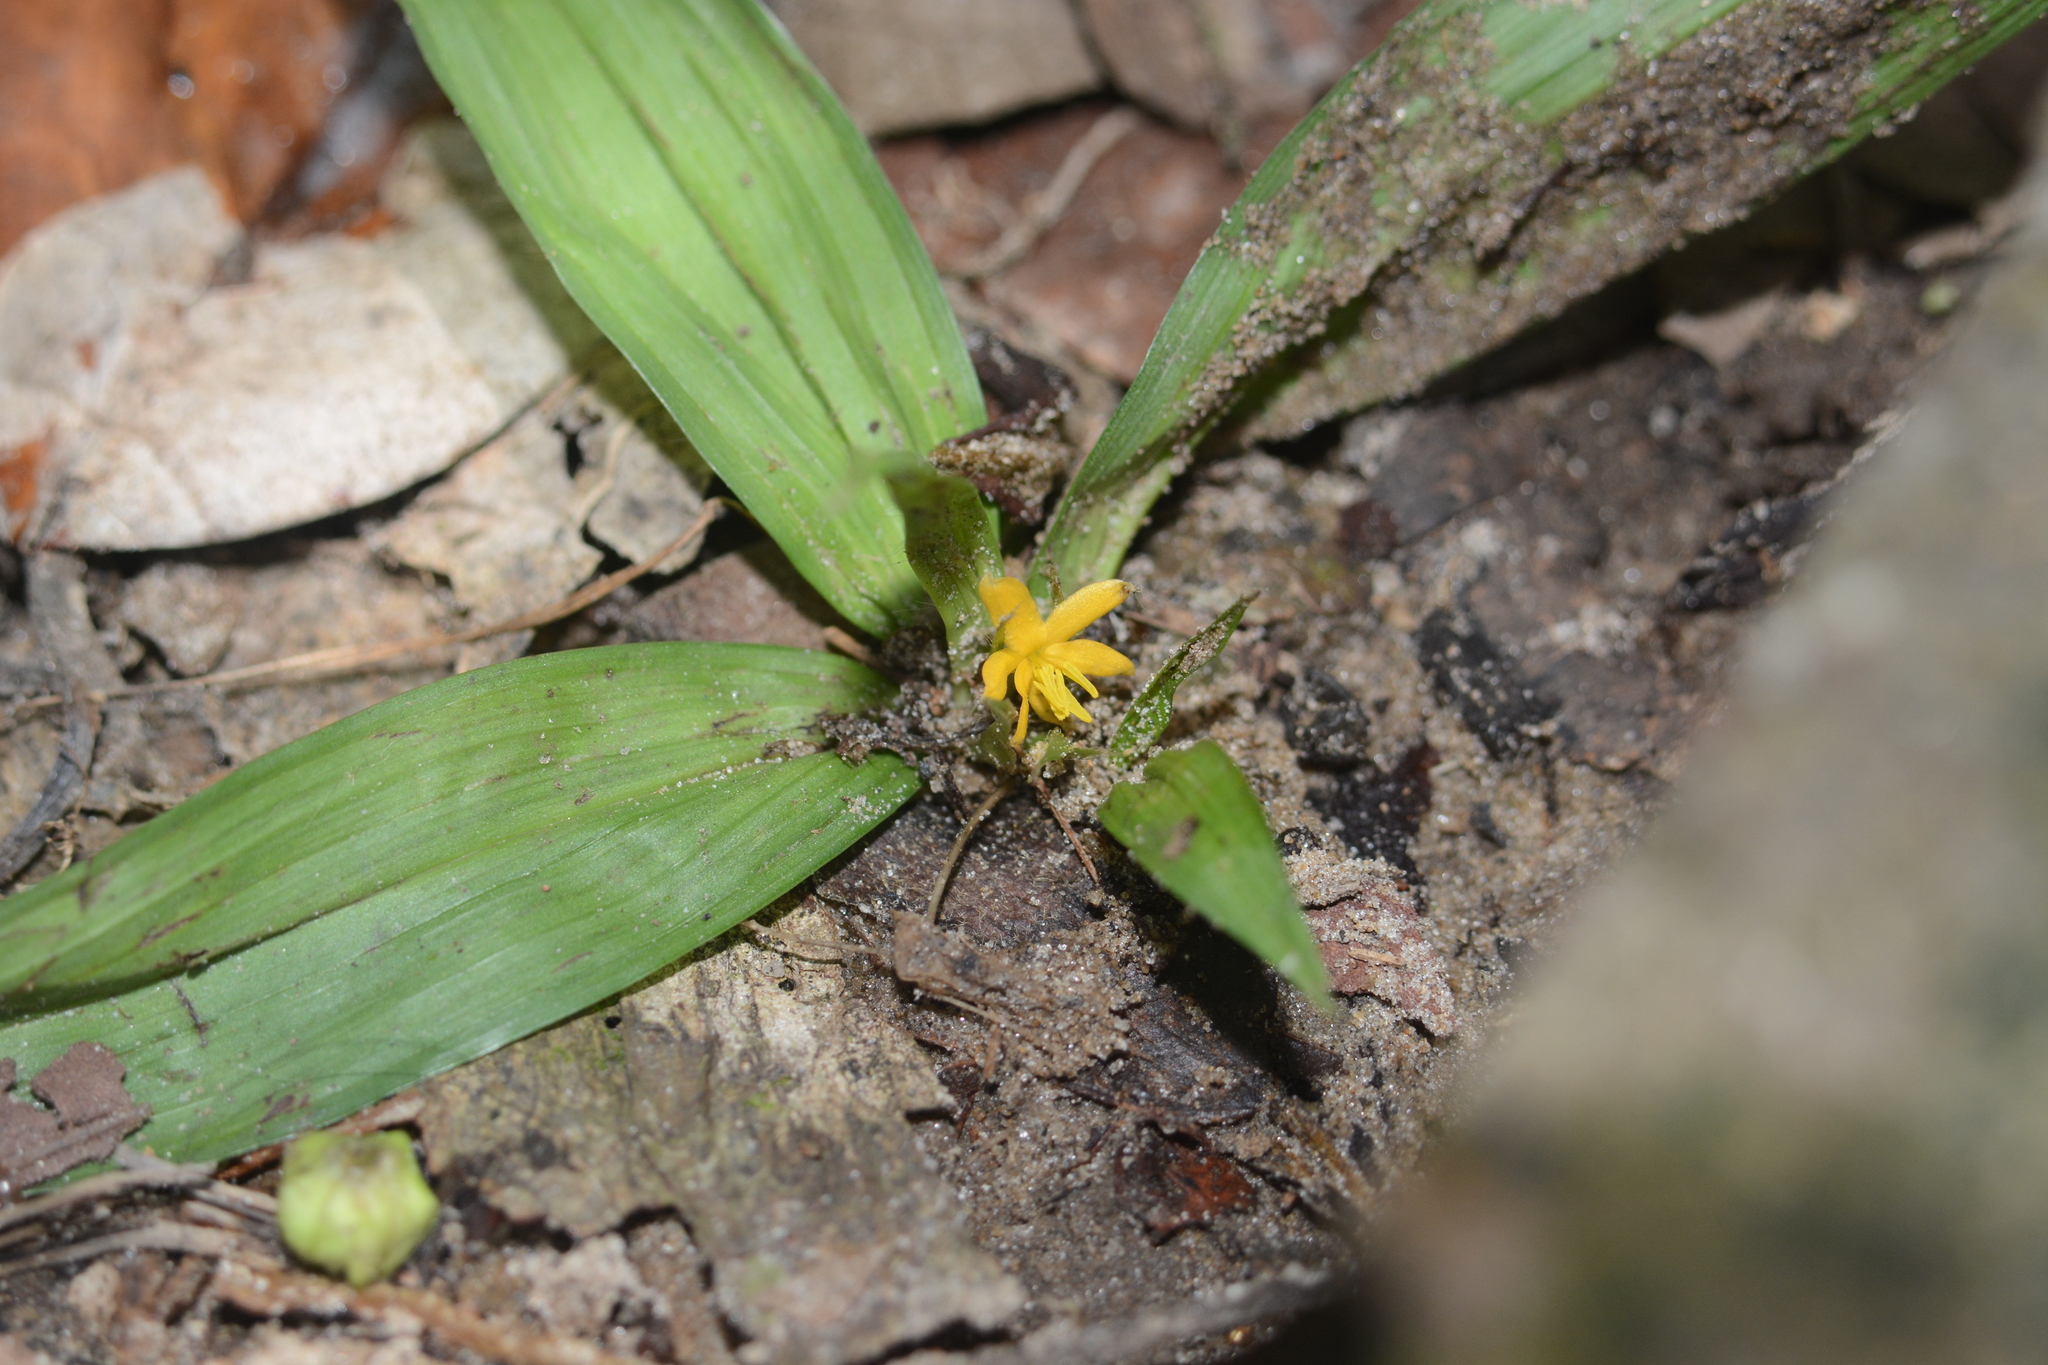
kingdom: Plantae
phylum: Tracheophyta
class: Liliopsida
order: Asparagales
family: Hypoxidaceae
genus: Curculigo
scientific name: Curculigo orchioides
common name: Golden eye-grass
